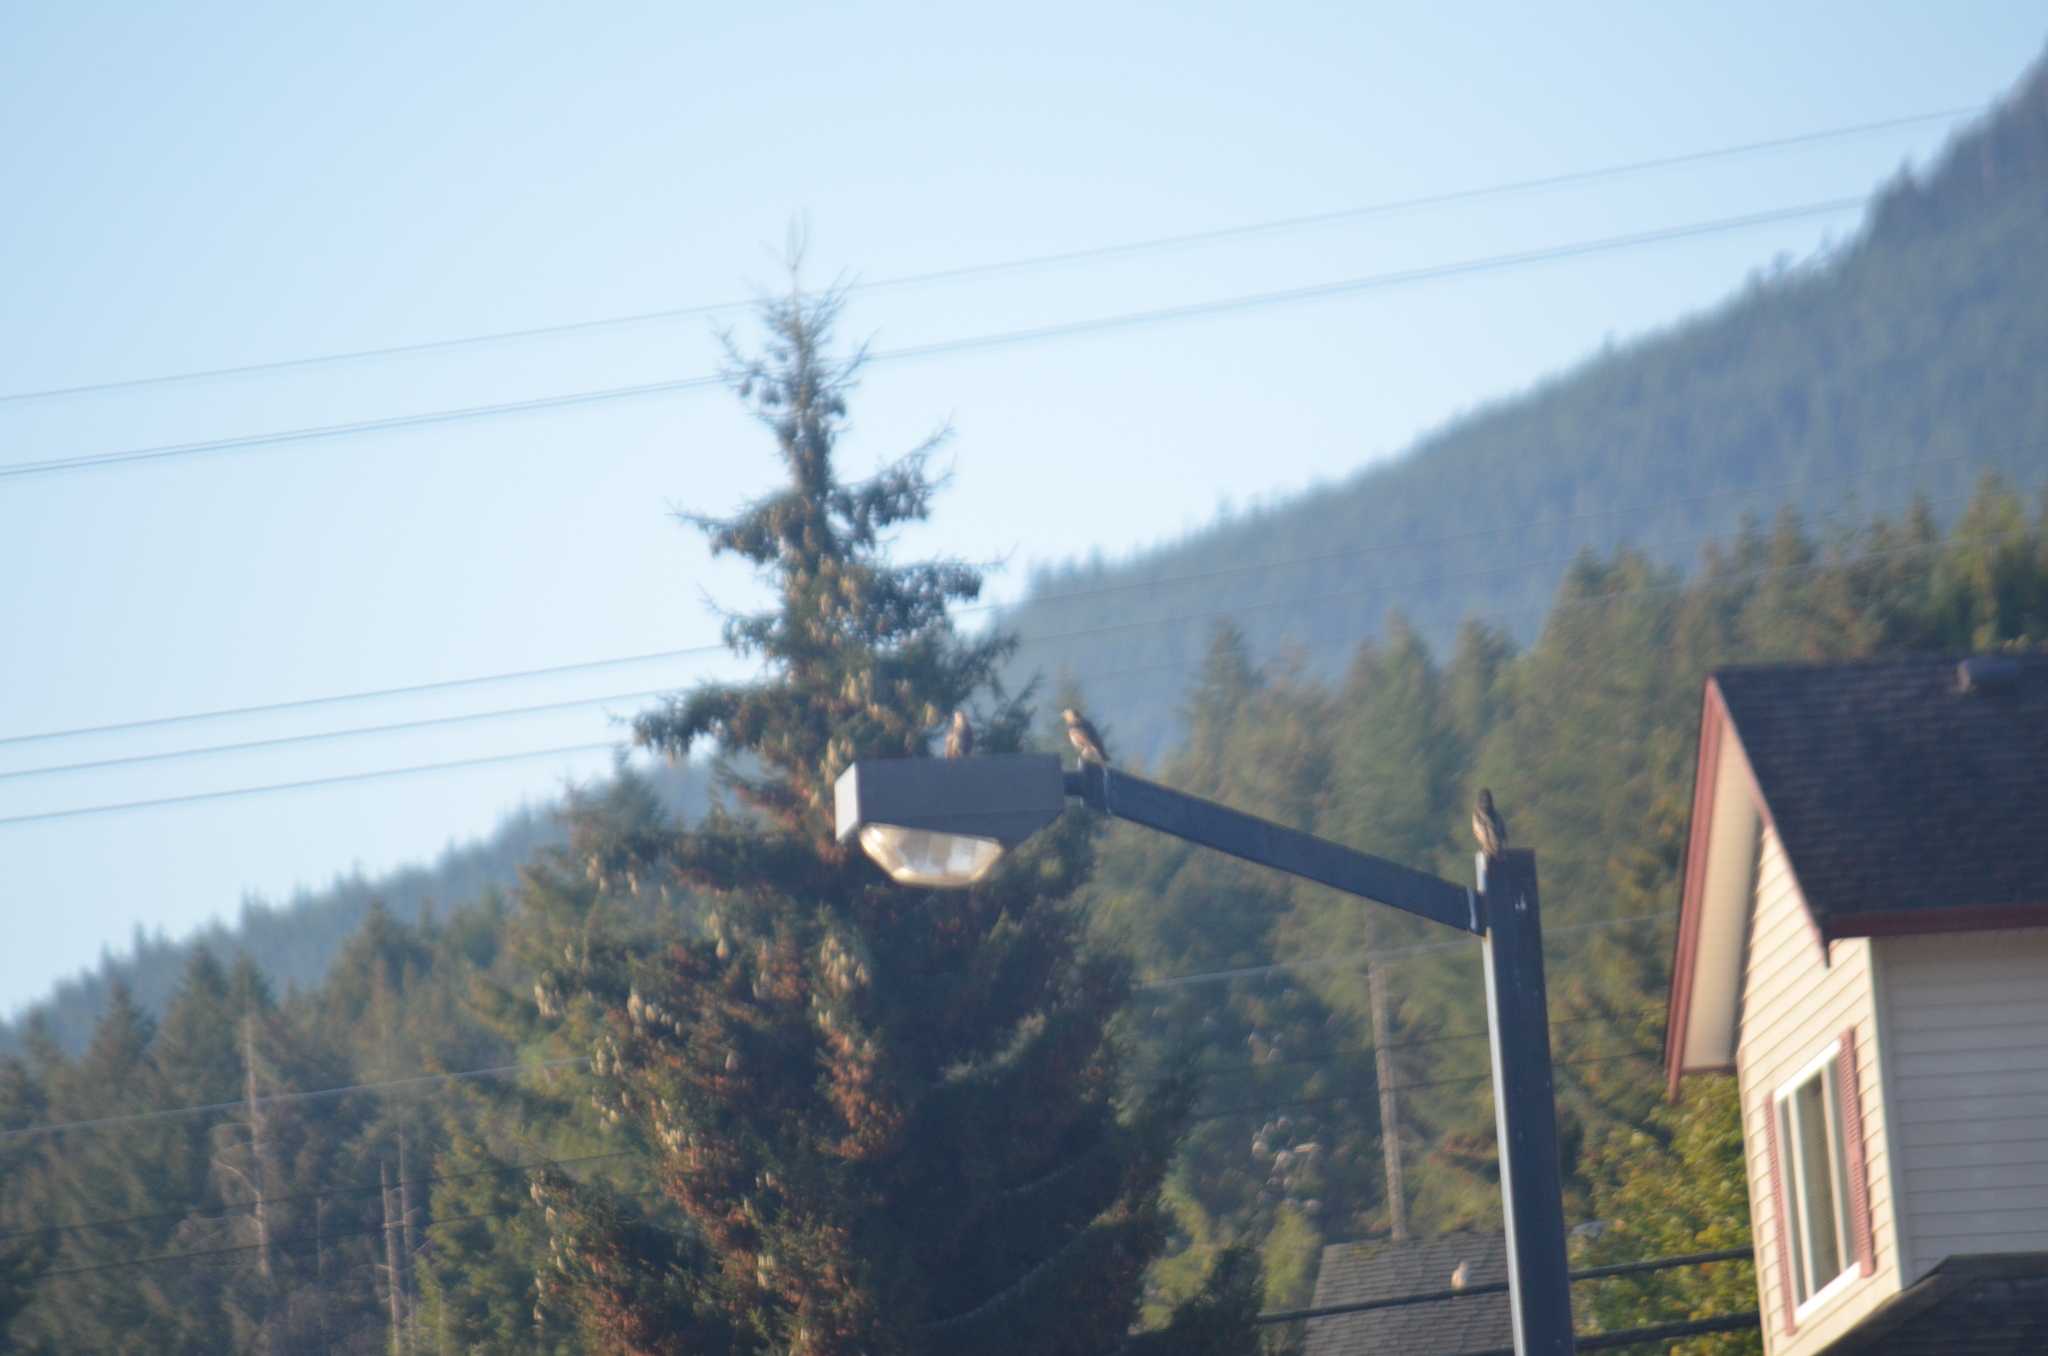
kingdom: Animalia
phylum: Chordata
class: Aves
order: Passeriformes
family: Sturnidae
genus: Sturnus
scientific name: Sturnus vulgaris
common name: Common starling
